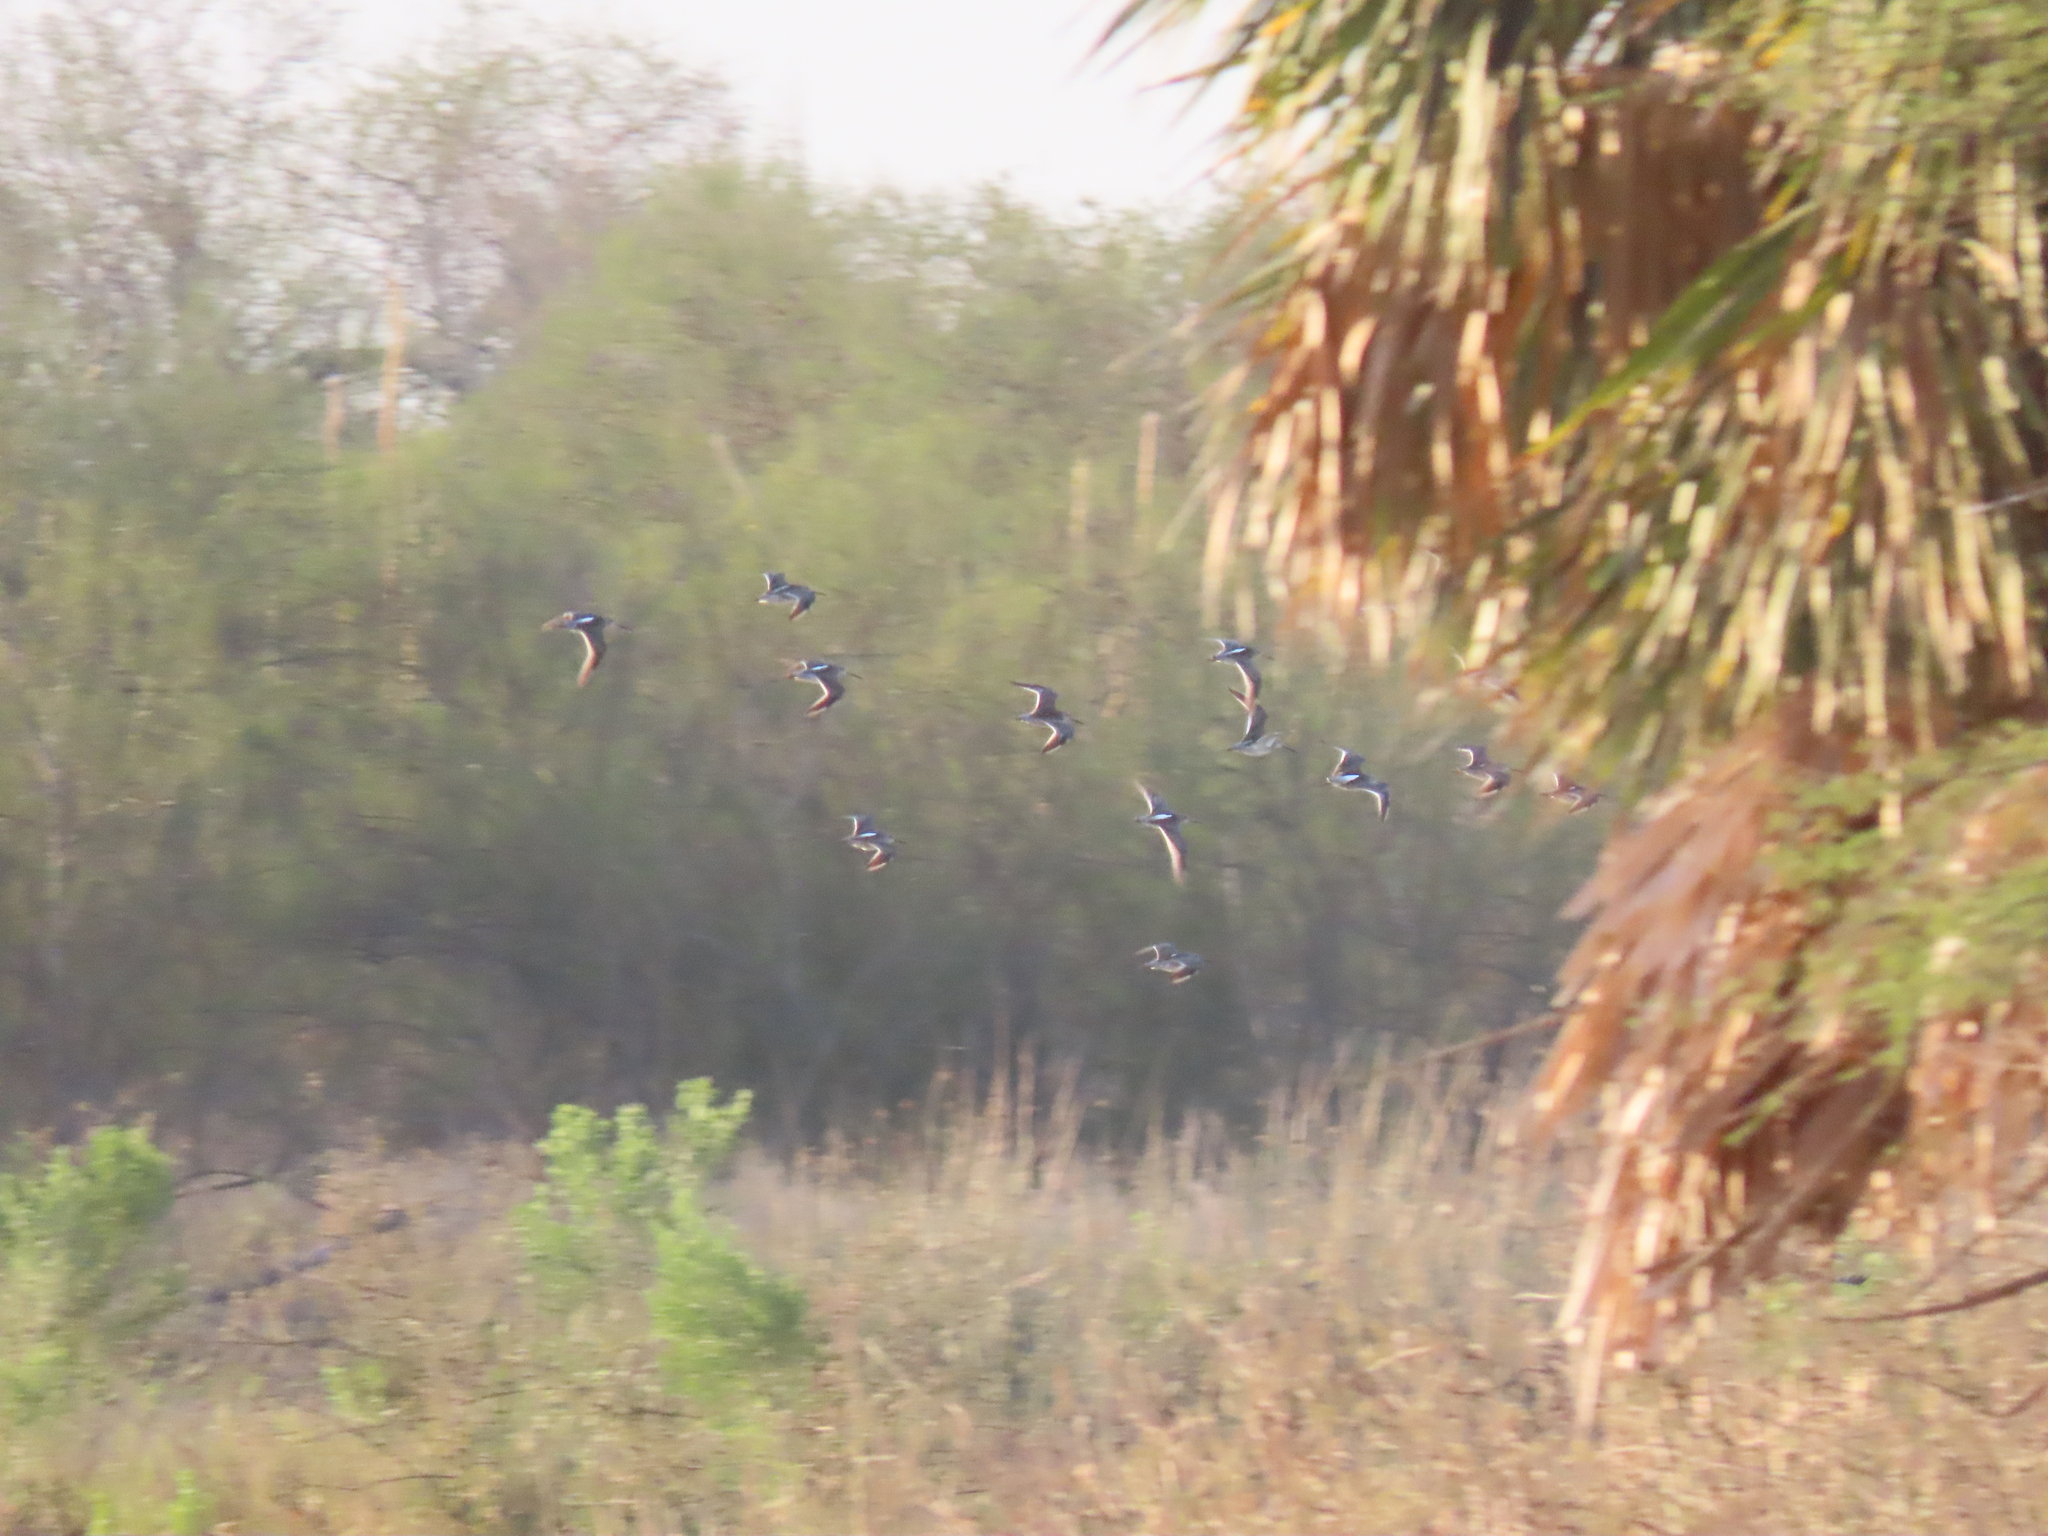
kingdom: Animalia
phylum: Chordata
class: Aves
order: Charadriiformes
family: Scolopacidae
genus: Limnodromus
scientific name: Limnodromus
